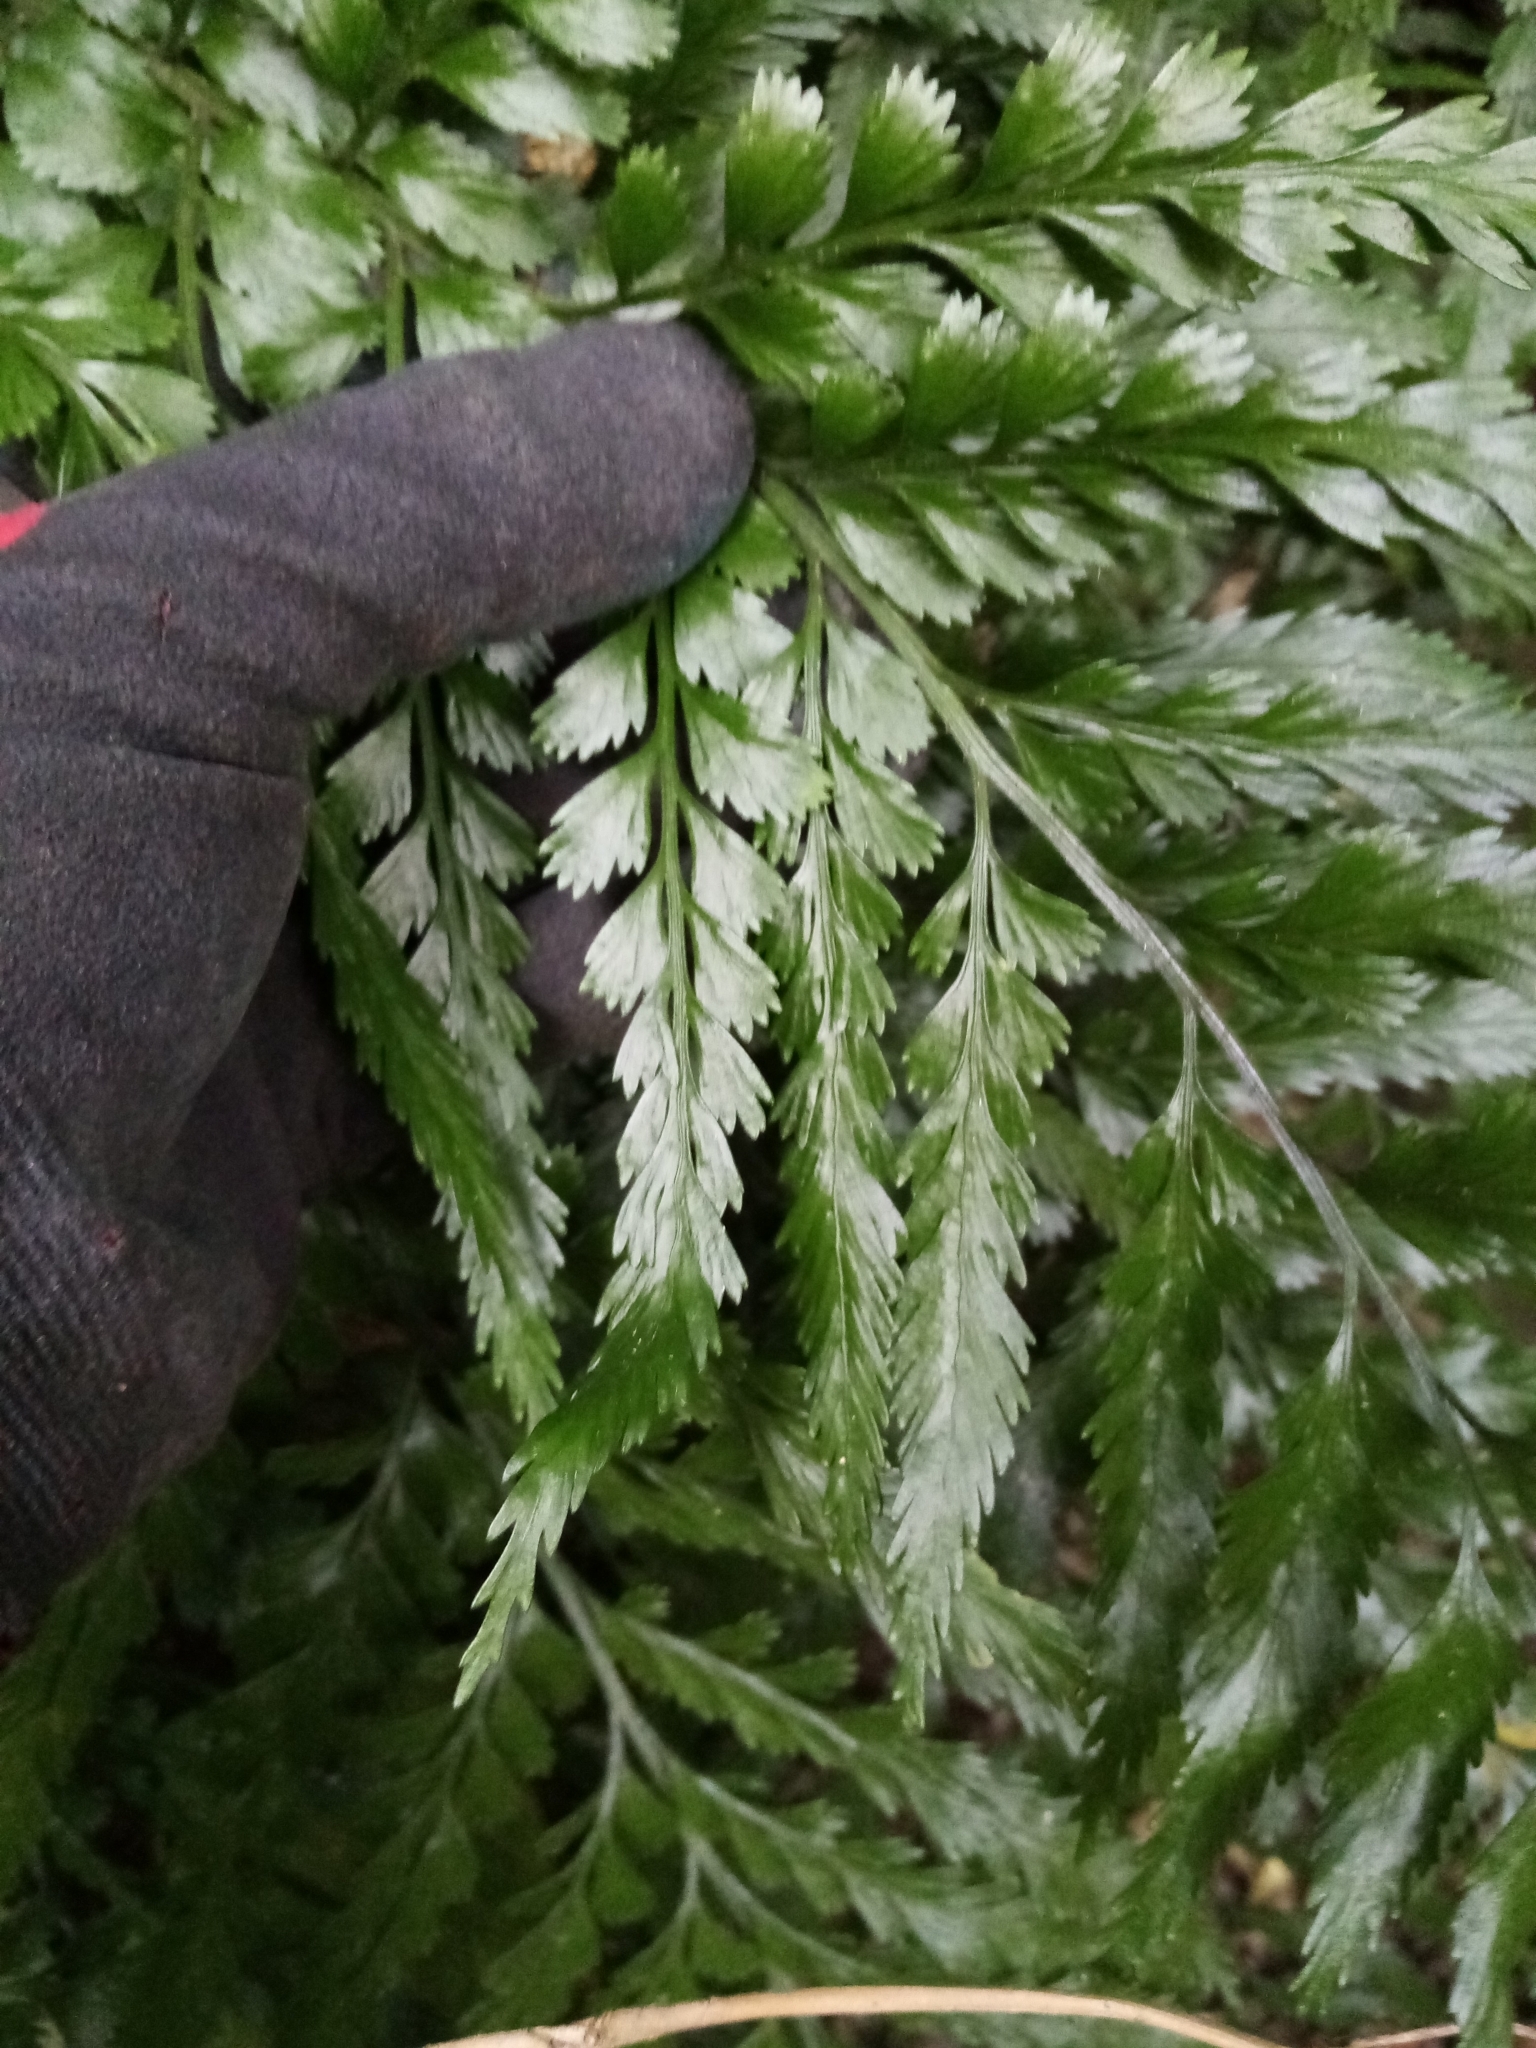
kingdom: Plantae
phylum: Tracheophyta
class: Polypodiopsida
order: Polypodiales
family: Aspleniaceae
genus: Asplenium
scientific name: Asplenium lyallii
